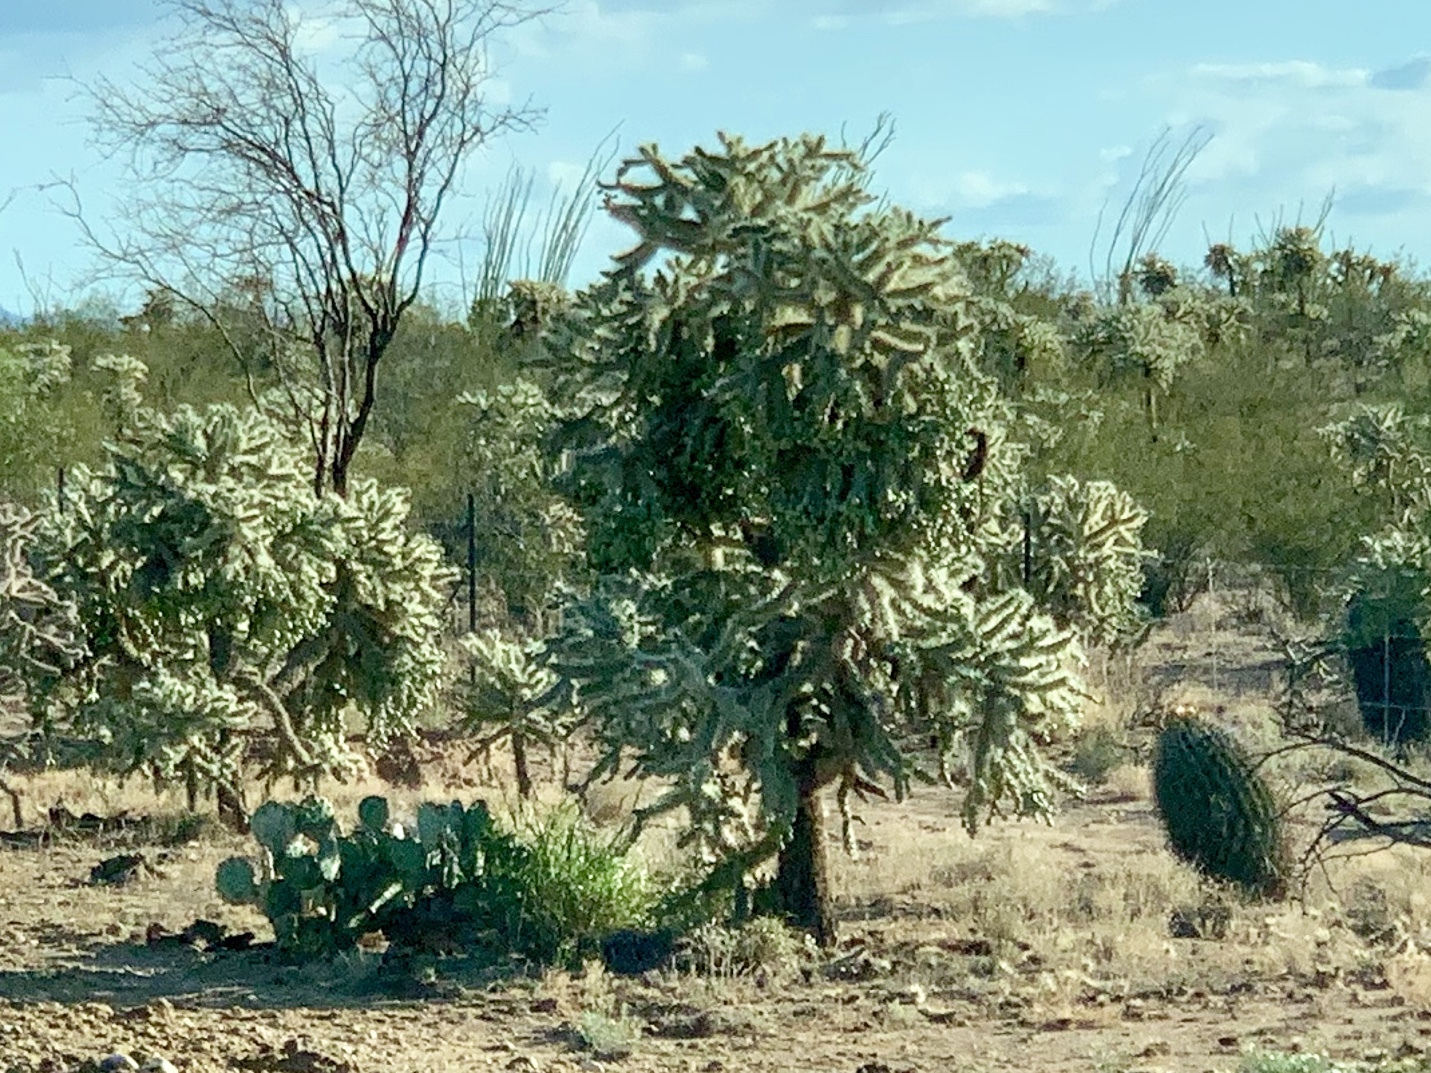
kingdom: Plantae
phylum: Tracheophyta
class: Magnoliopsida
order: Caryophyllales
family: Cactaceae
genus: Cylindropuntia
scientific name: Cylindropuntia fulgida
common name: Jumping cholla
